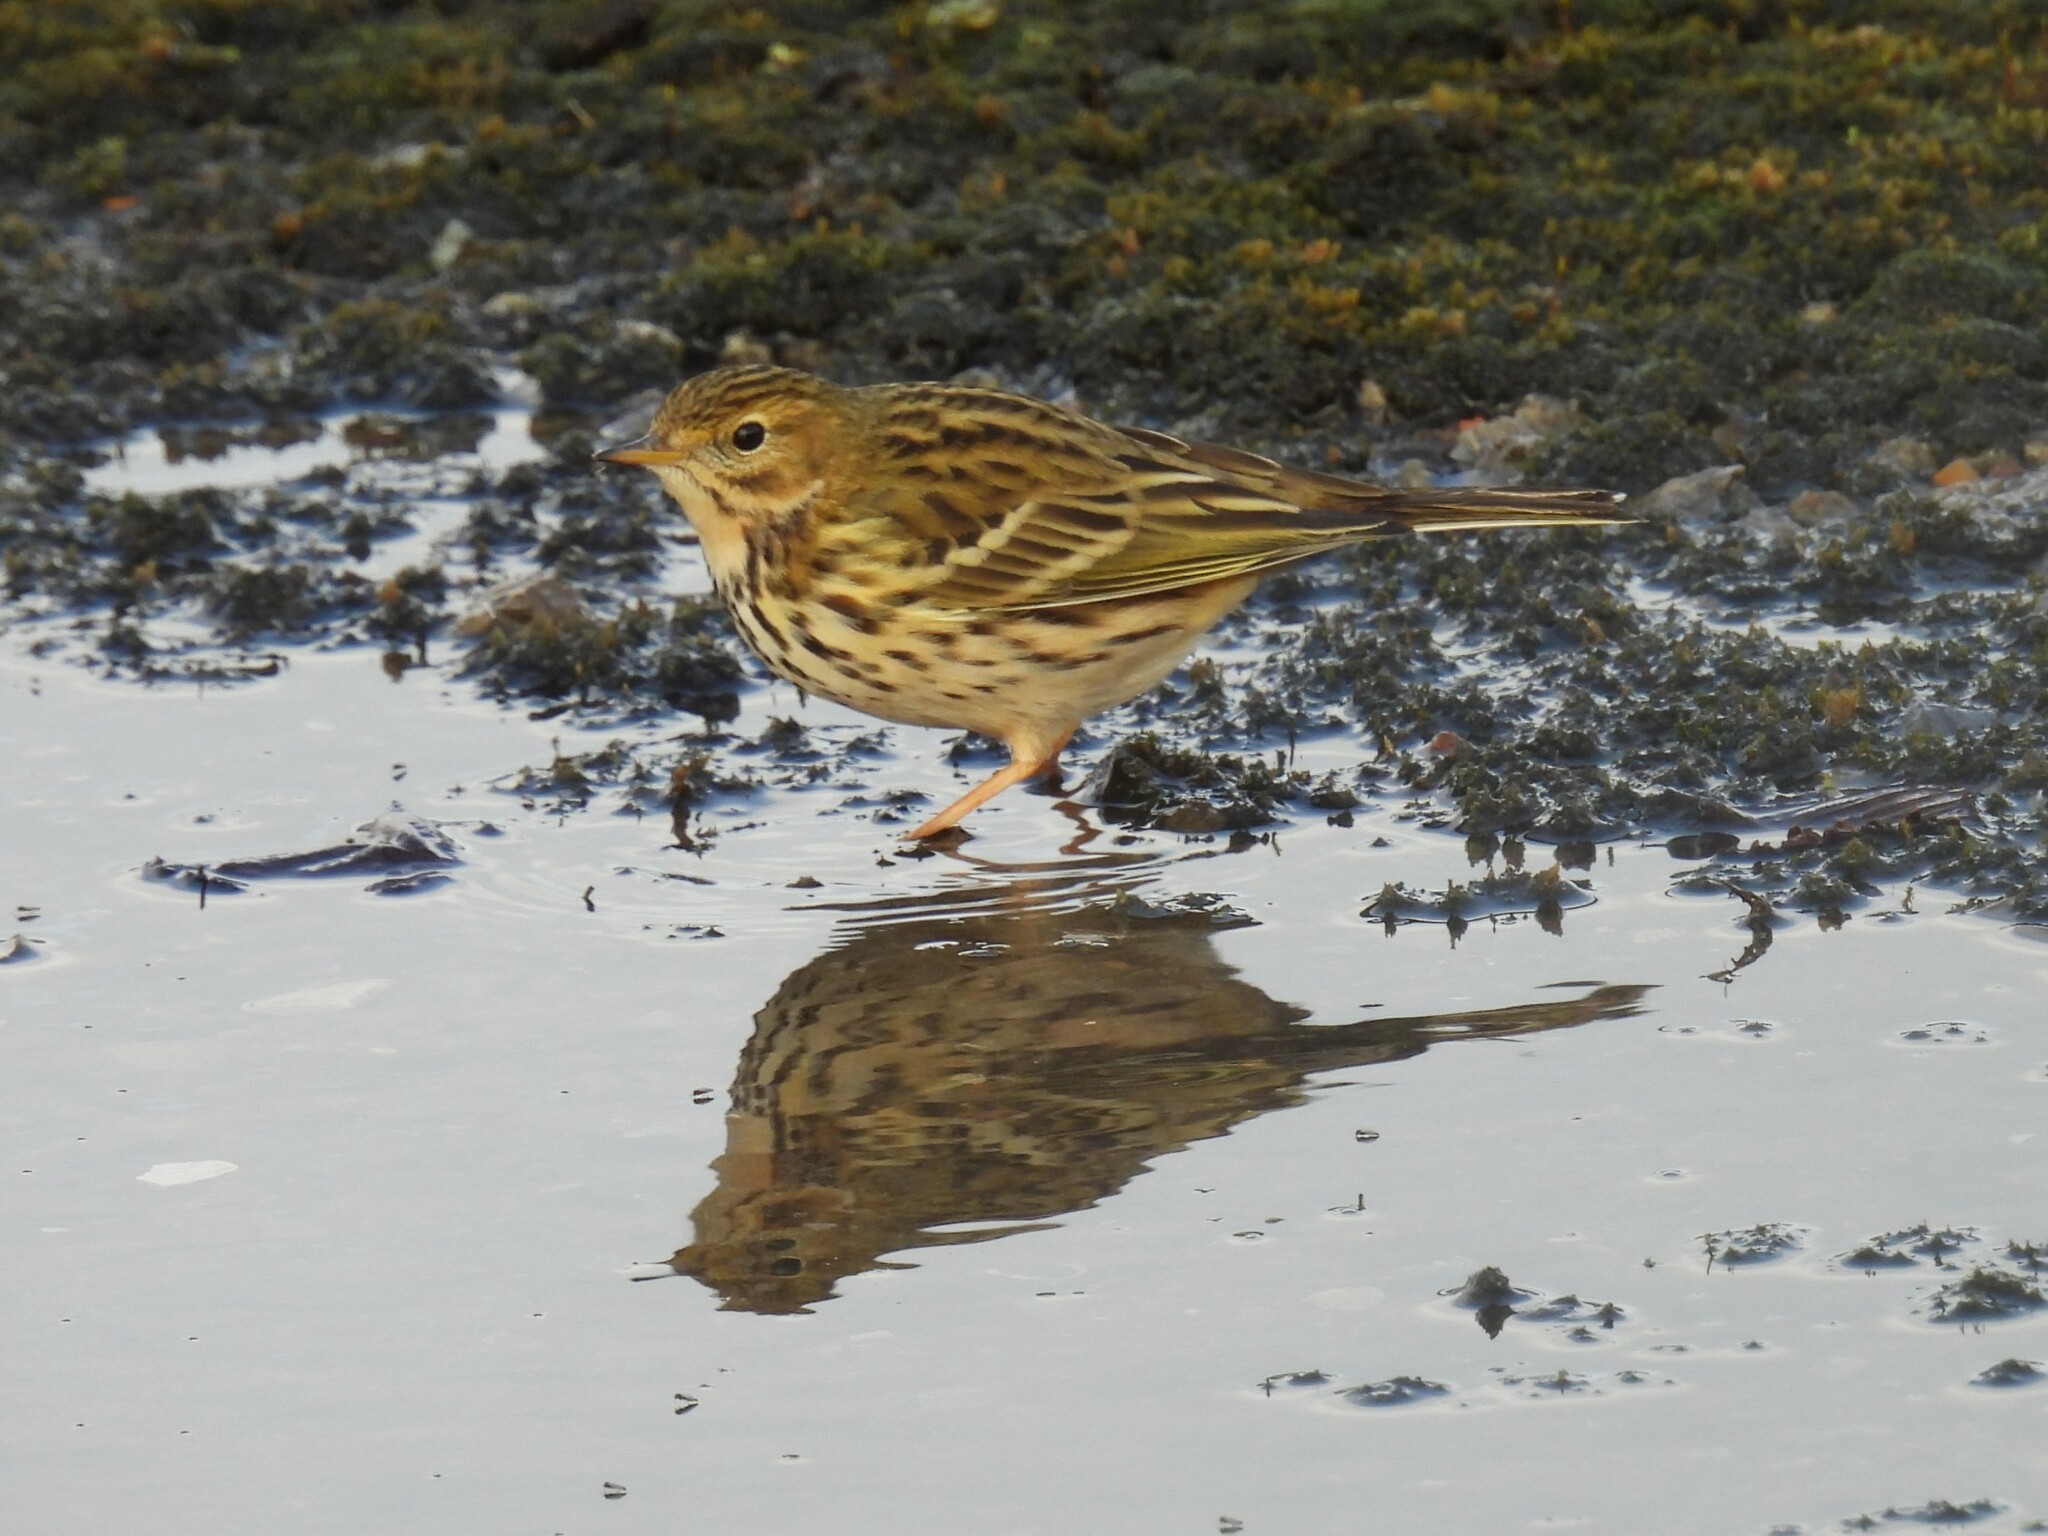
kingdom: Animalia
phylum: Chordata
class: Aves
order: Passeriformes
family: Motacillidae
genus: Anthus
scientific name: Anthus pratensis
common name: Meadow pipit
